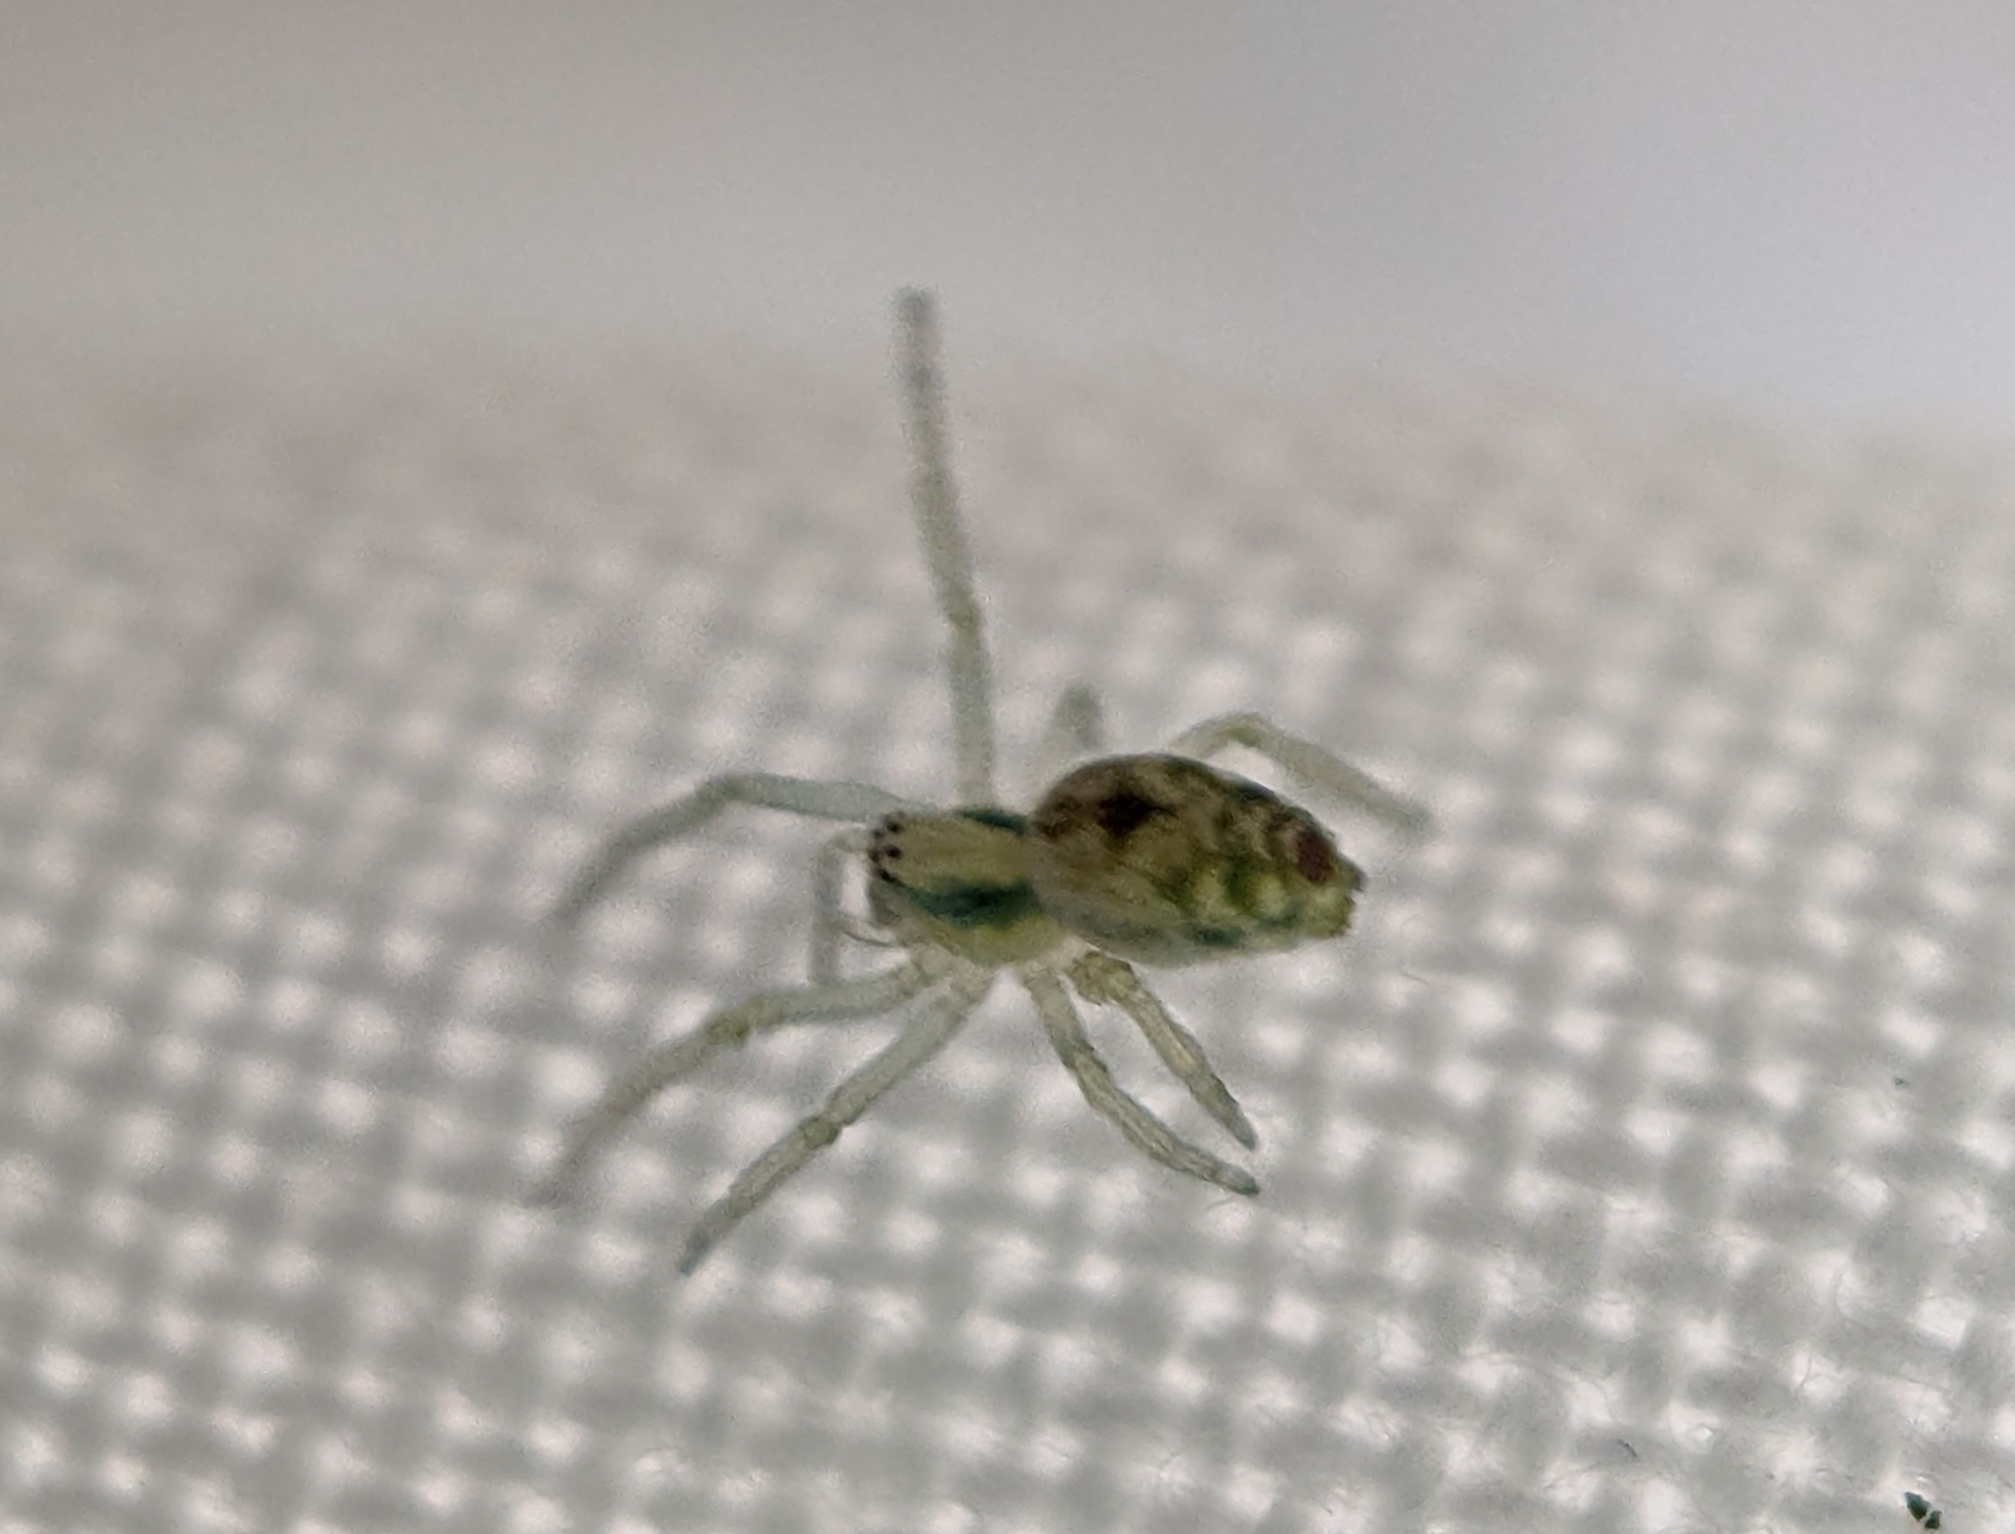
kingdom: Animalia
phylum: Arthropoda
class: Arachnida
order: Araneae
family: Dictynidae
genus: Nigma
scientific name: Nigma puella
